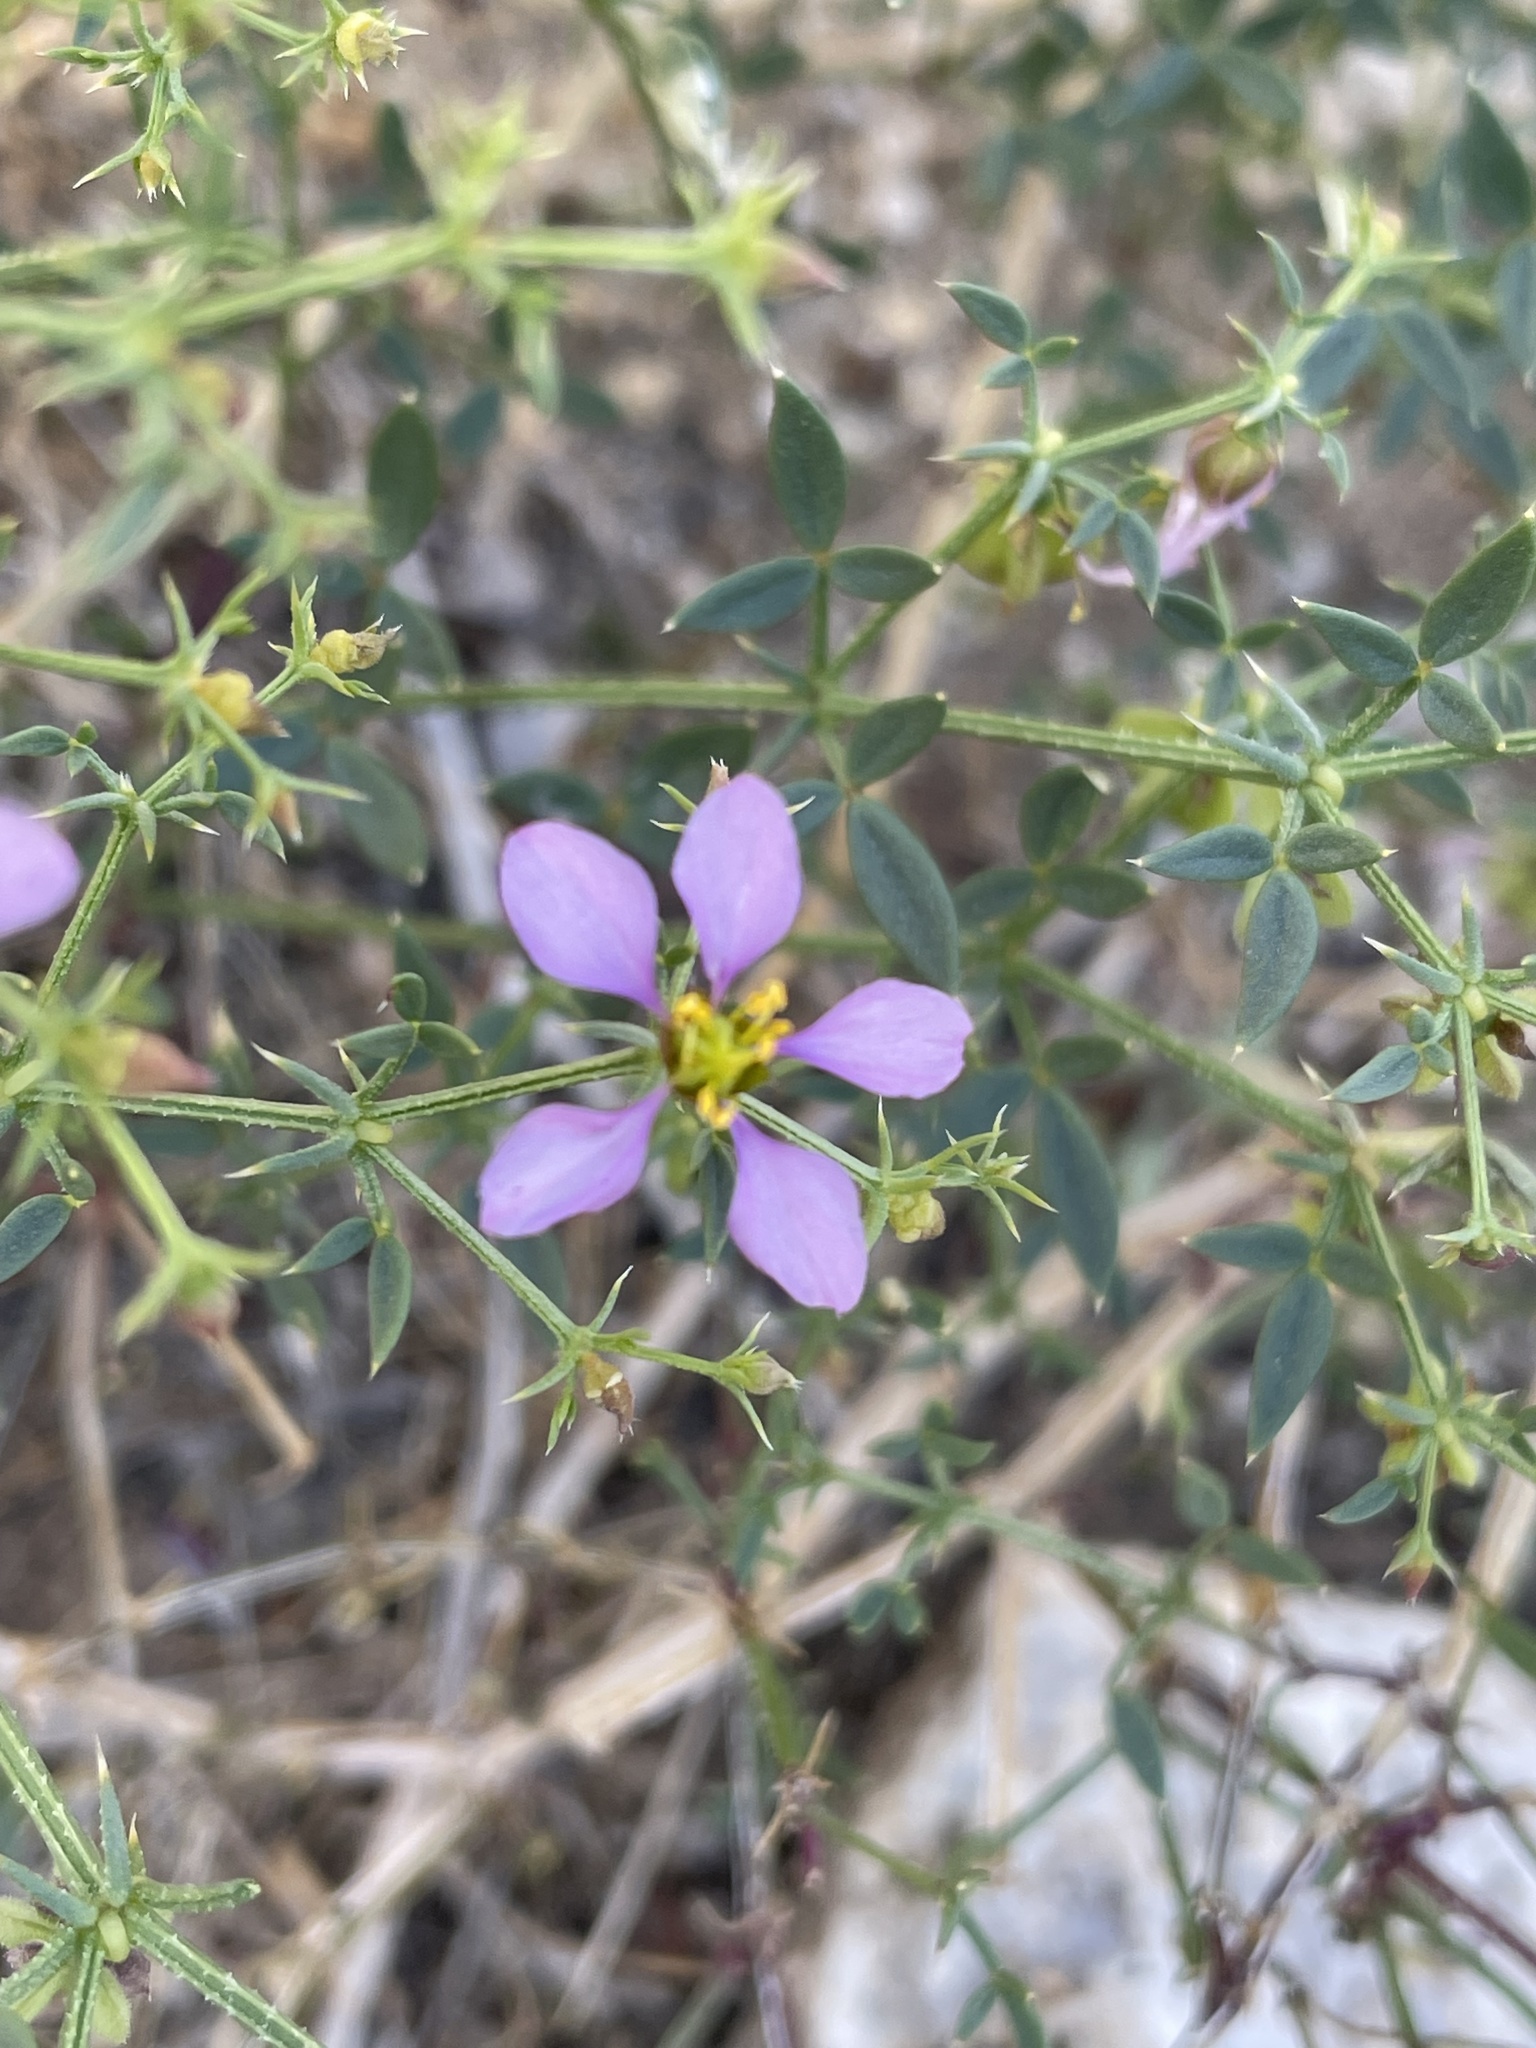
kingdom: Plantae
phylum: Tracheophyta
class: Magnoliopsida
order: Zygophyllales
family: Zygophyllaceae
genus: Fagonia
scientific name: Fagonia laevis
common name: California fagonbush
